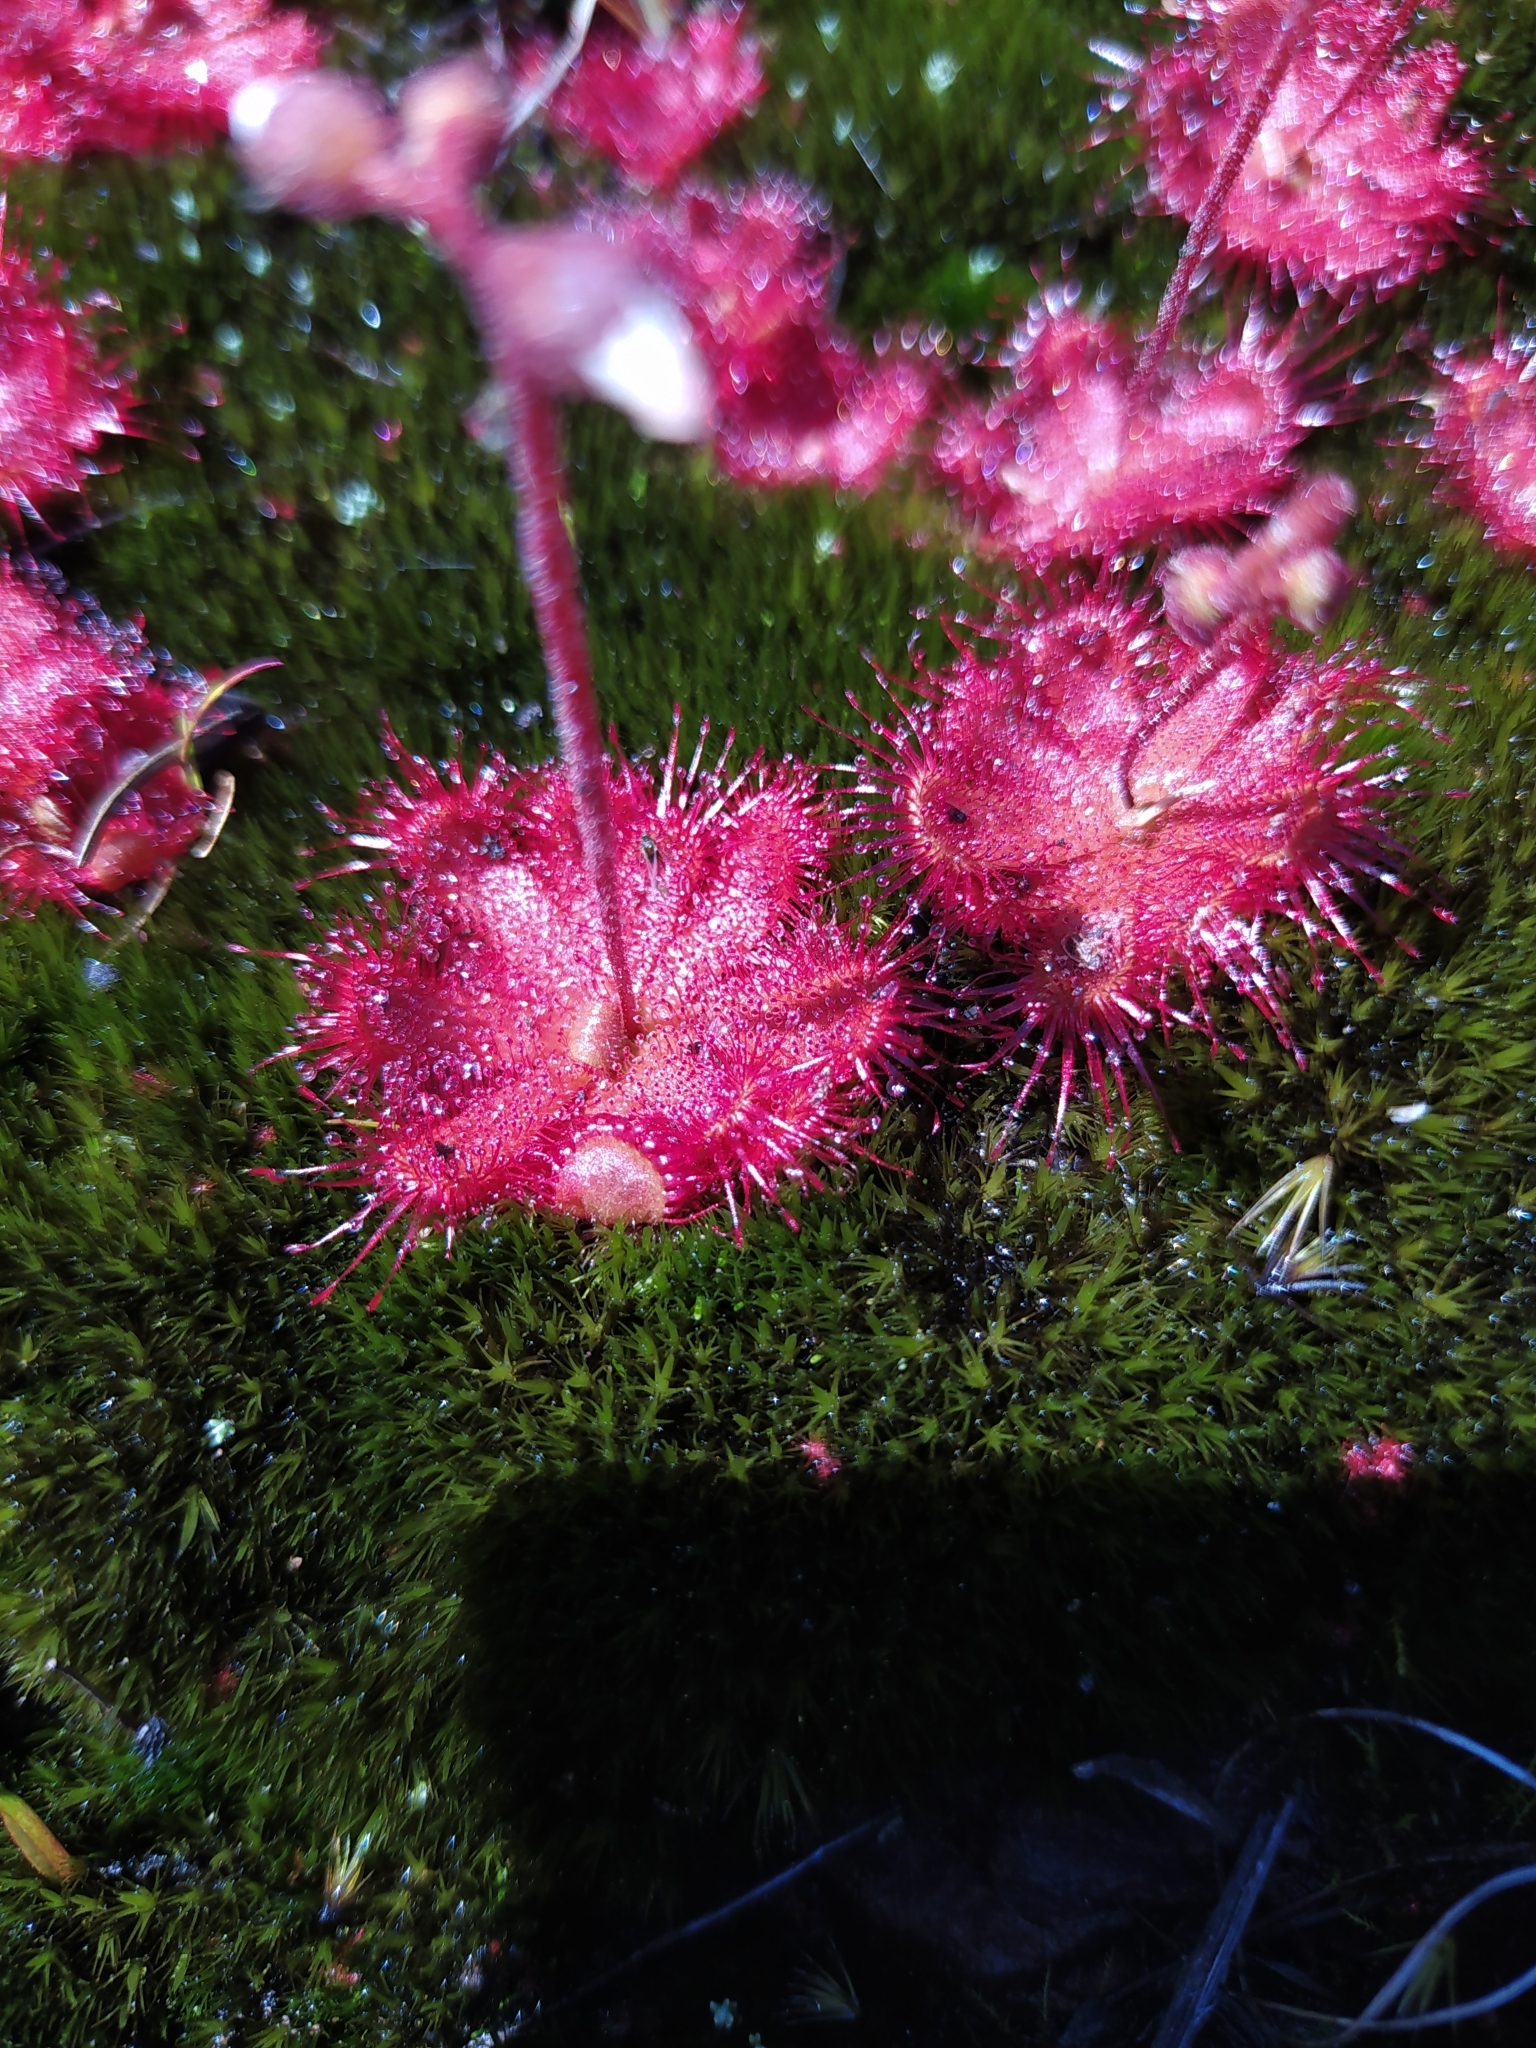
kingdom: Plantae
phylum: Tracheophyta
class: Magnoliopsida
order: Caryophyllales
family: Droseraceae
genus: Drosera
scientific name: Drosera trinervia
